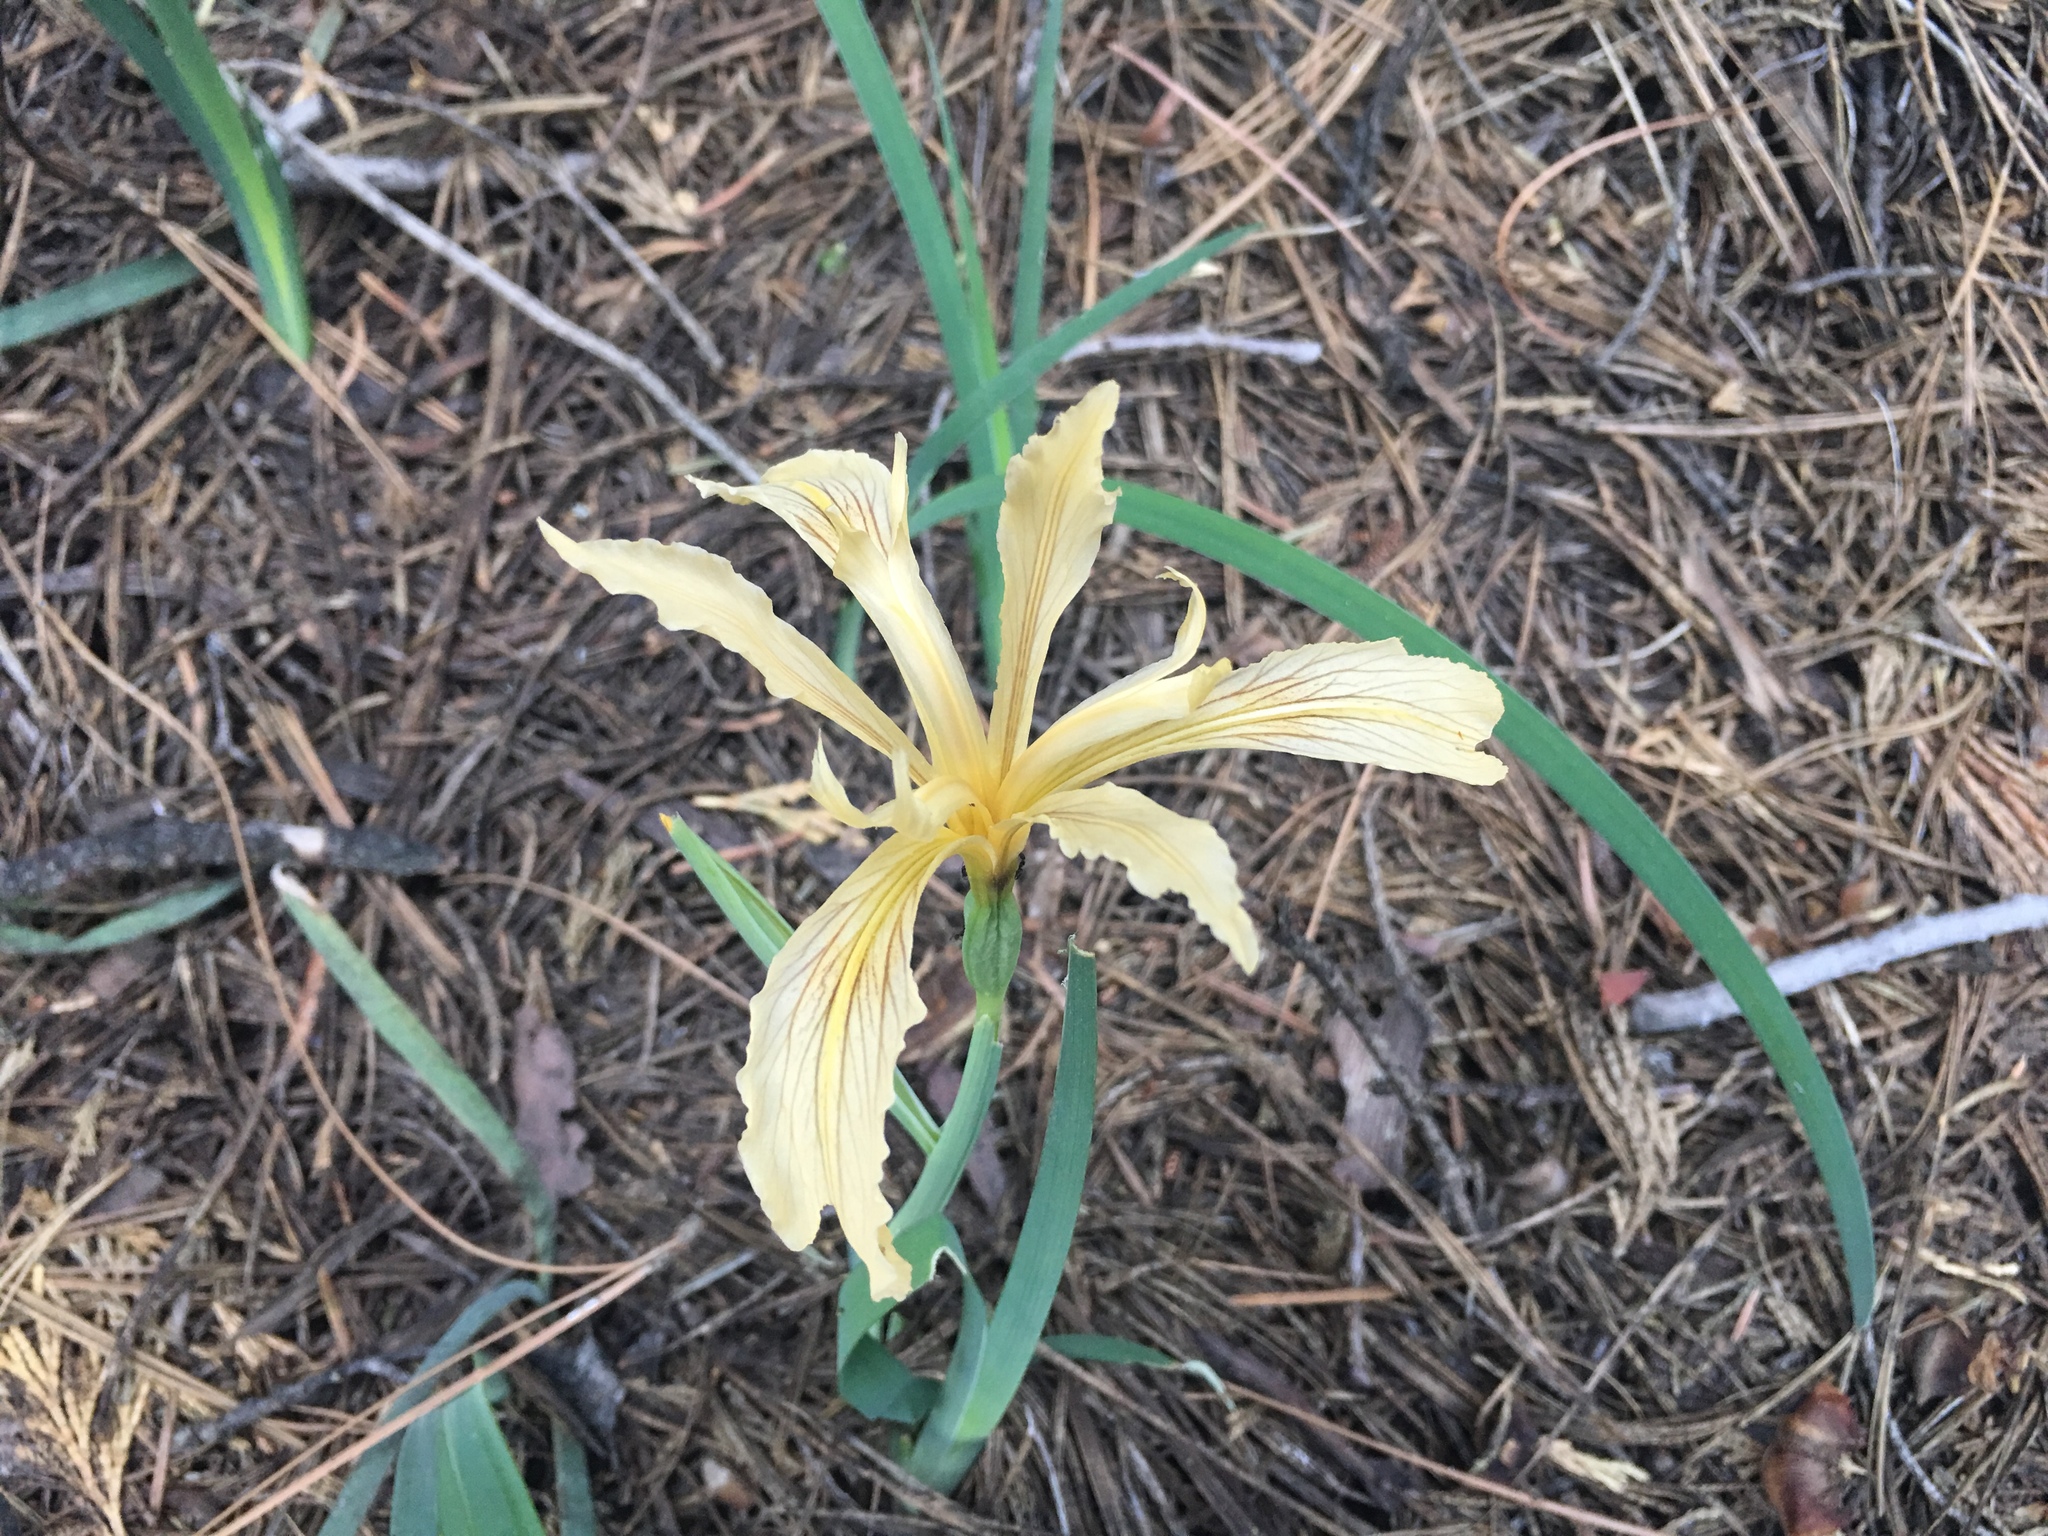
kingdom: Plantae
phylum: Tracheophyta
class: Liliopsida
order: Asparagales
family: Iridaceae
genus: Iris
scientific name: Iris hartwegii
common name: Sierra iris
